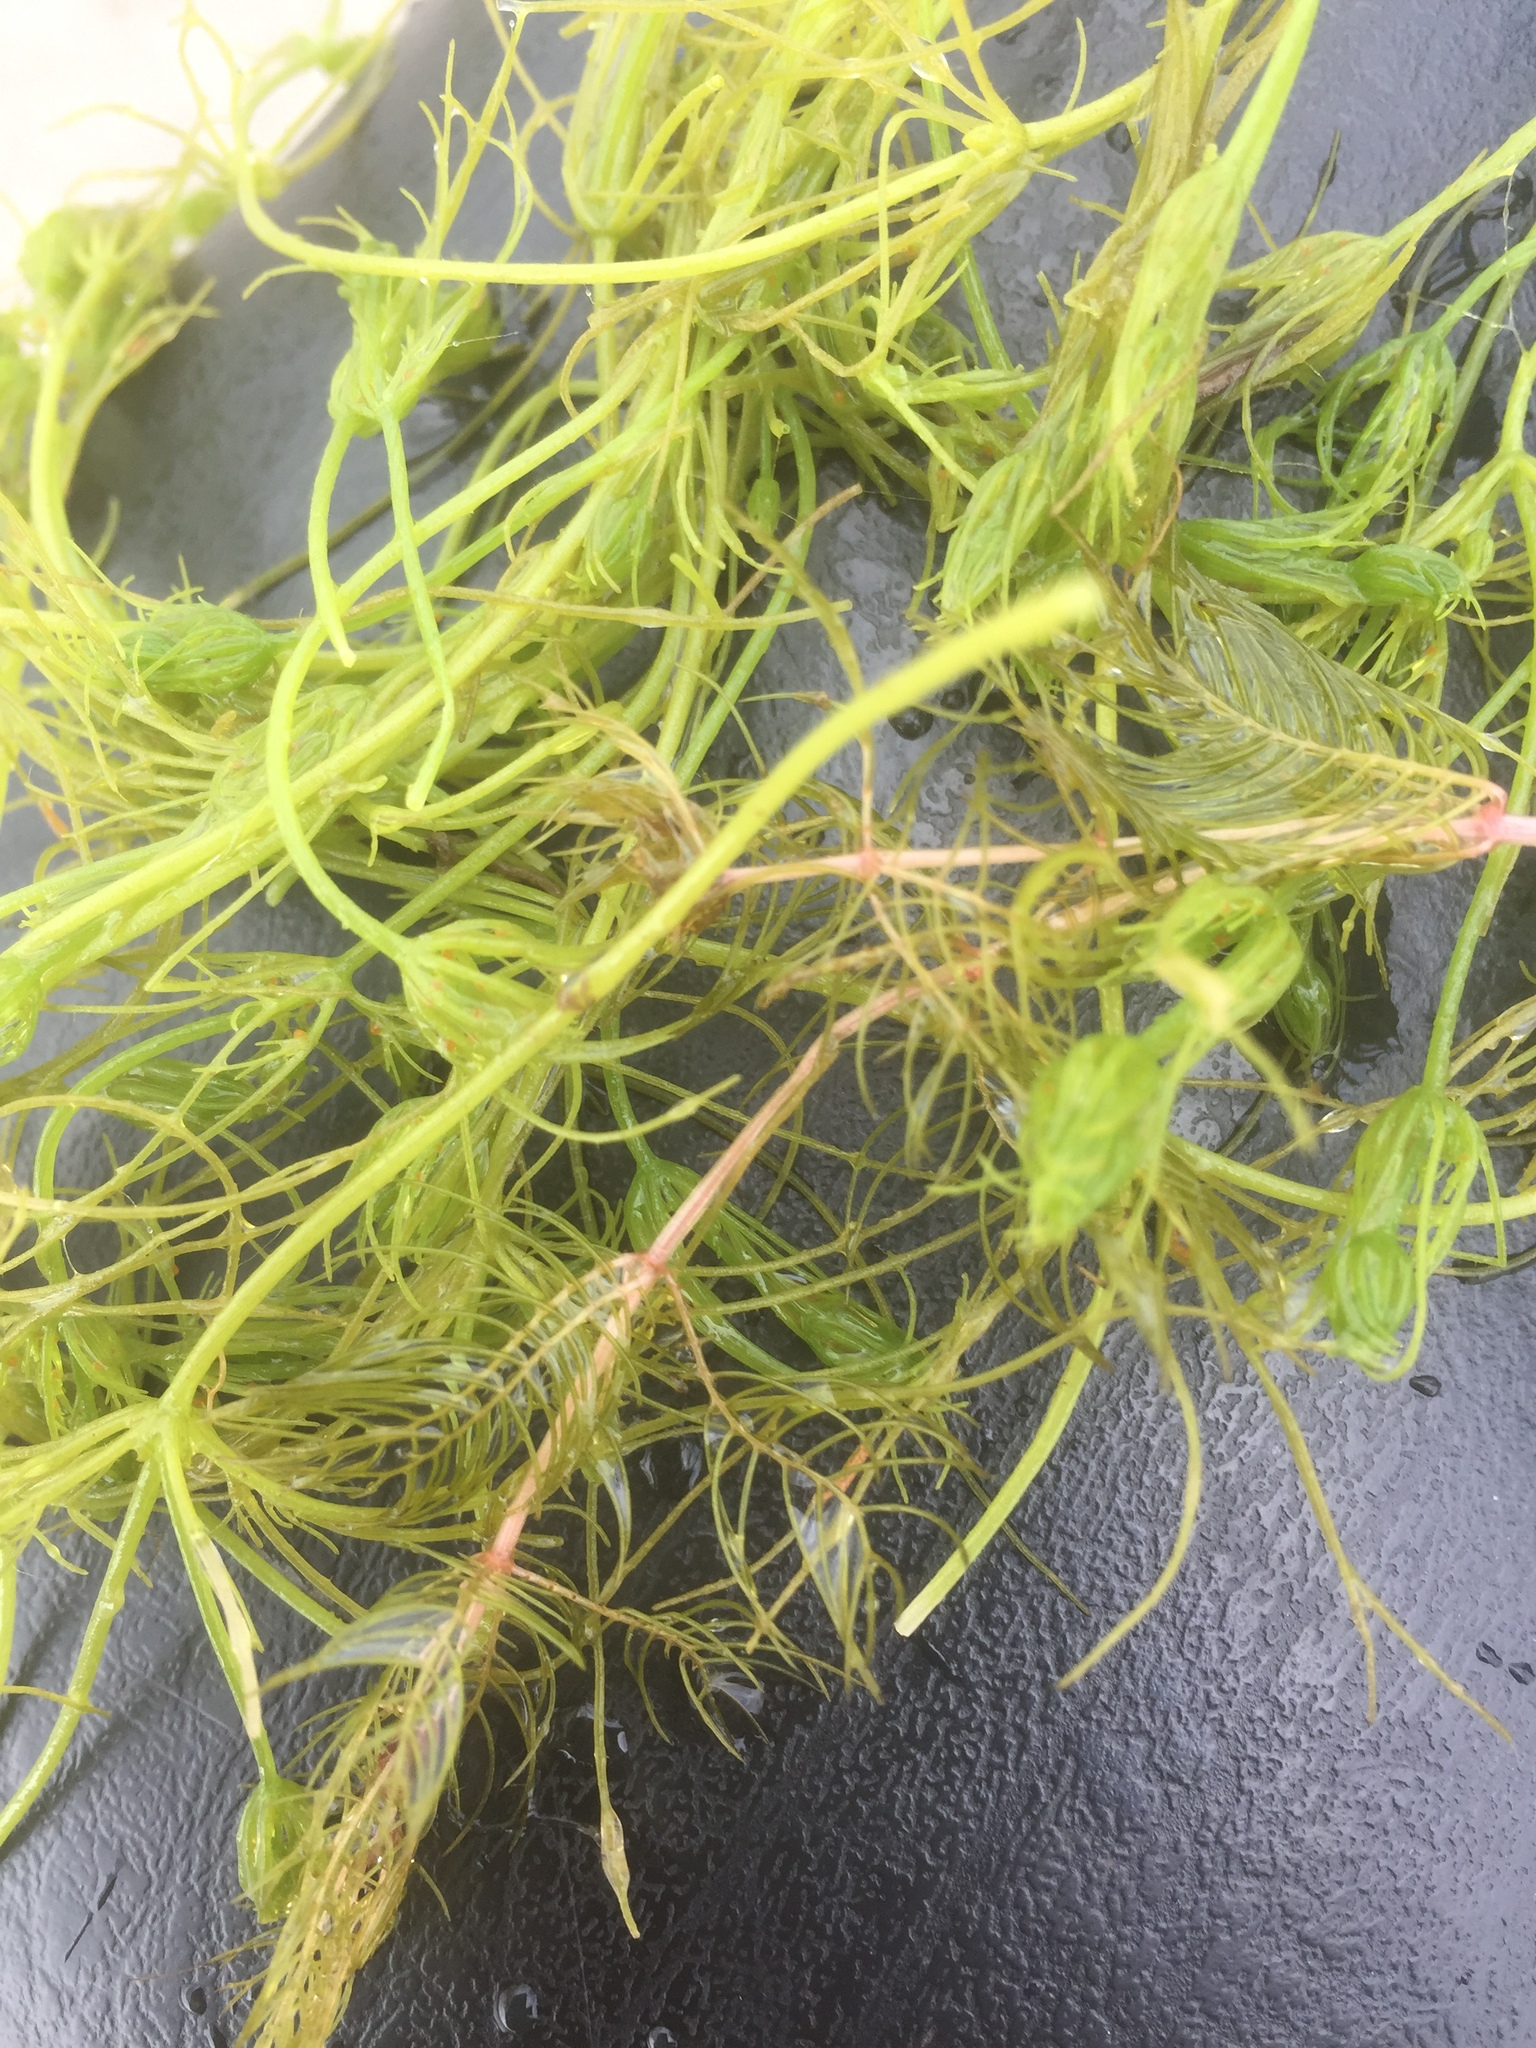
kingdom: Plantae
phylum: Charophyta
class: Charophyceae
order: Charales
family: Characeae
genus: Chara
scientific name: Chara vulgaris
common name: Common stonewort
